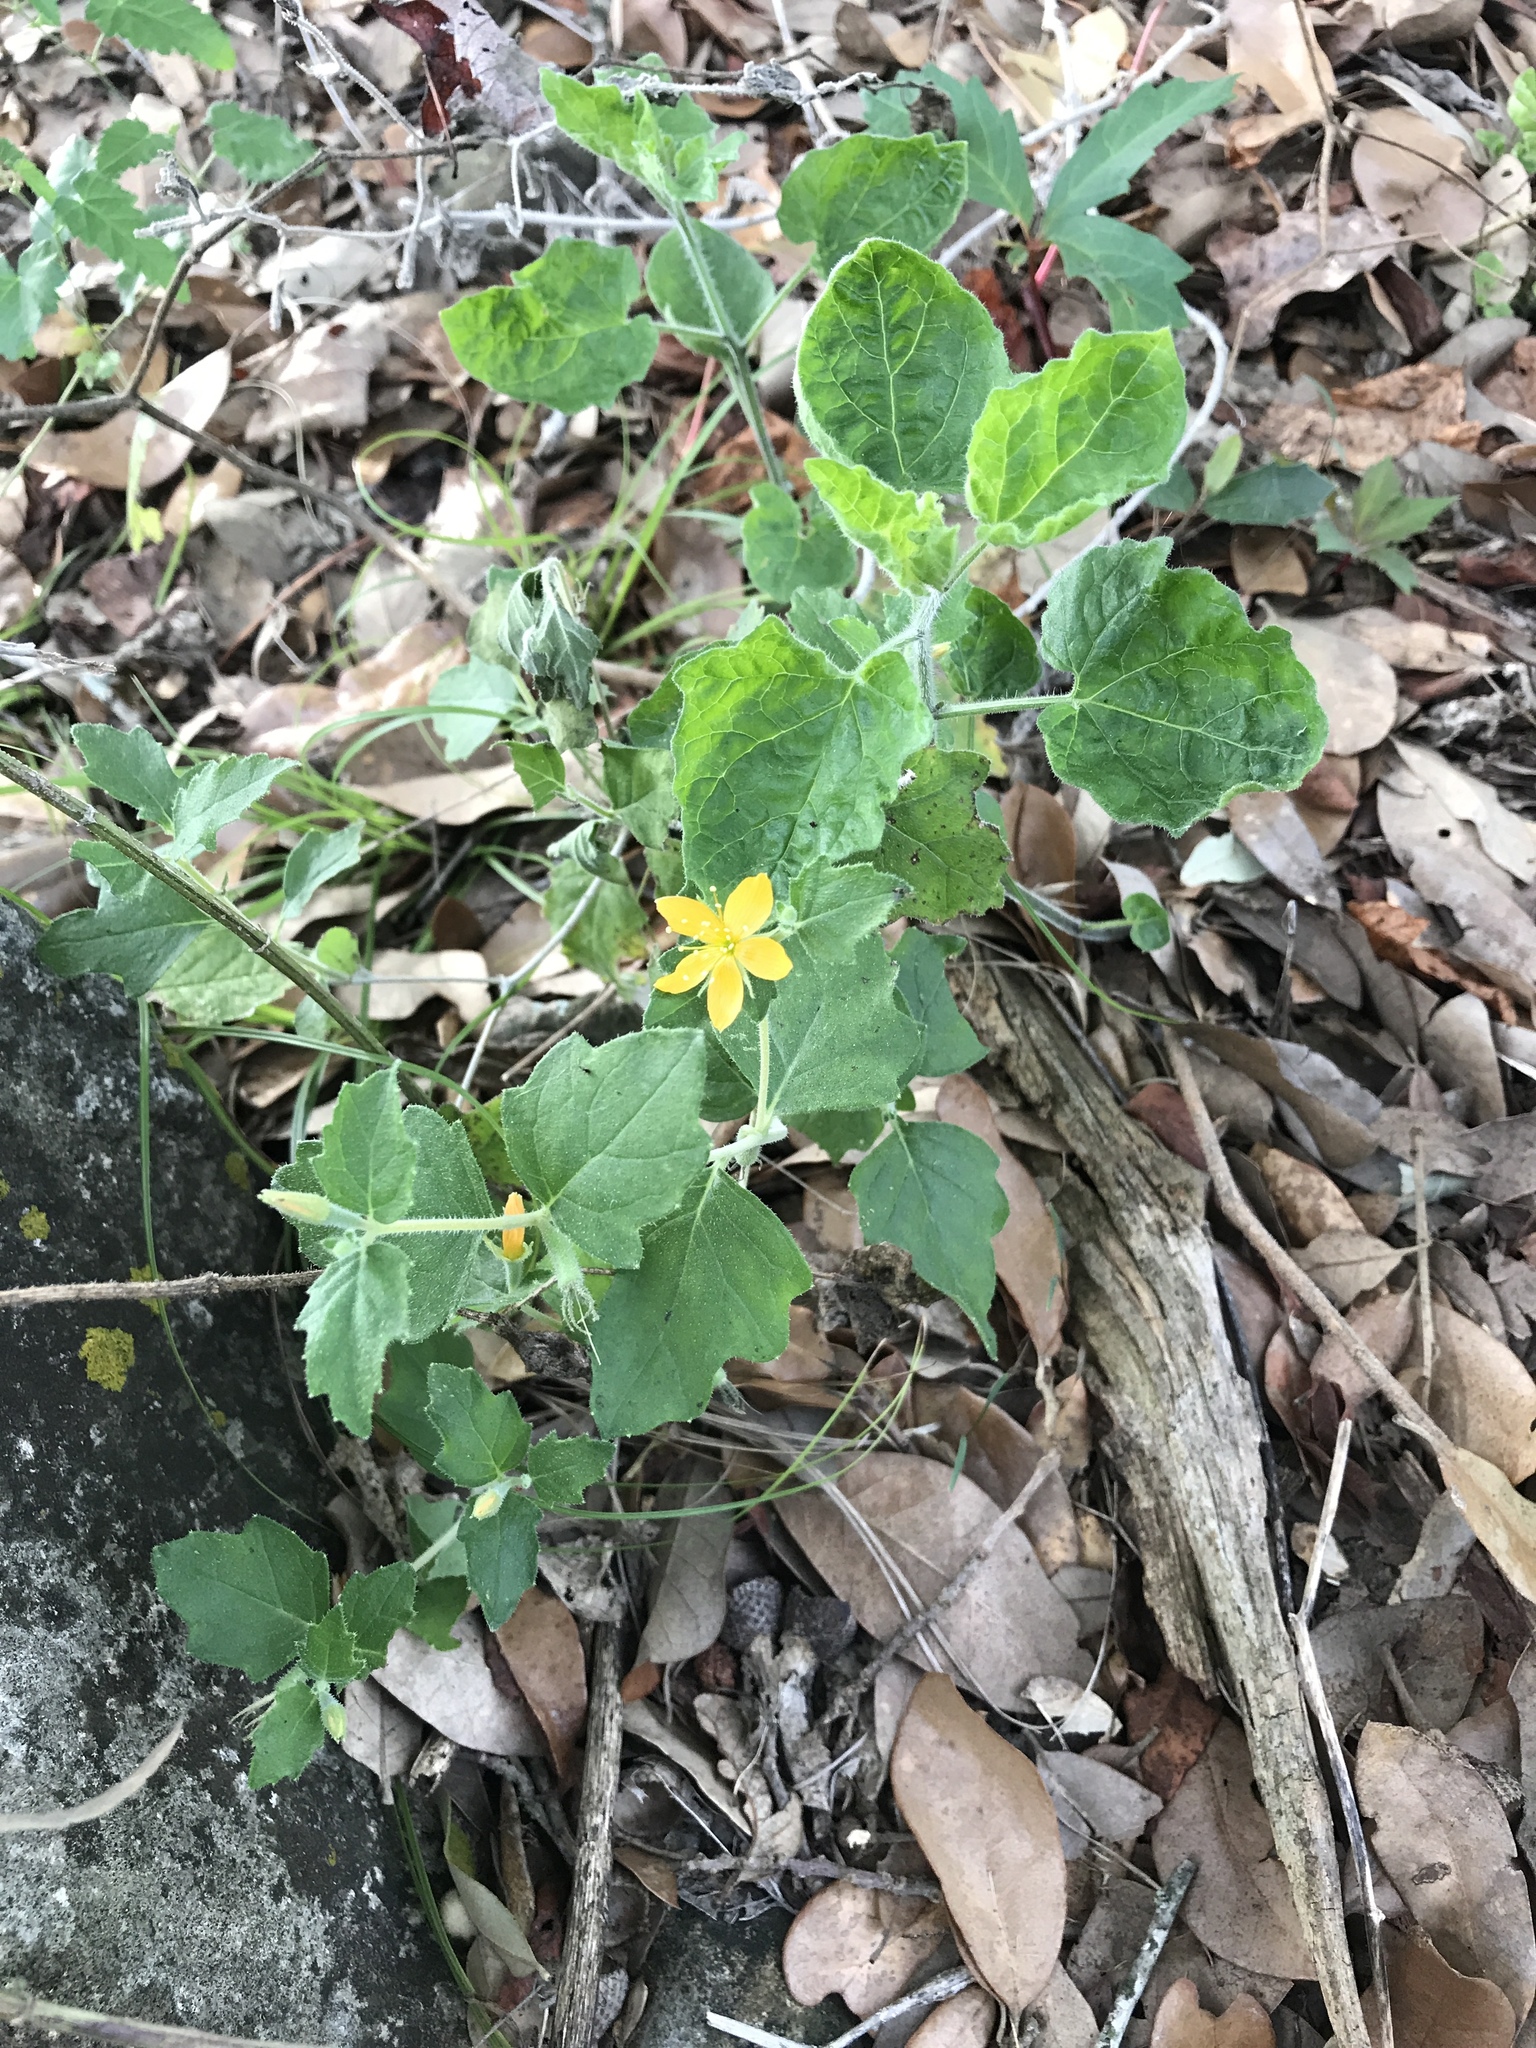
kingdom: Plantae
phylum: Tracheophyta
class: Magnoliopsida
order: Cornales
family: Loasaceae
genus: Mentzelia
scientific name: Mentzelia oligosperma
